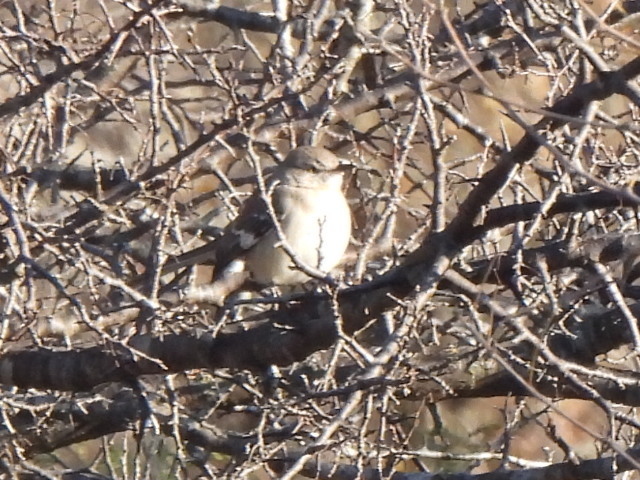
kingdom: Animalia
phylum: Chordata
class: Aves
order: Passeriformes
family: Mimidae
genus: Mimus
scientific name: Mimus polyglottos
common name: Northern mockingbird
